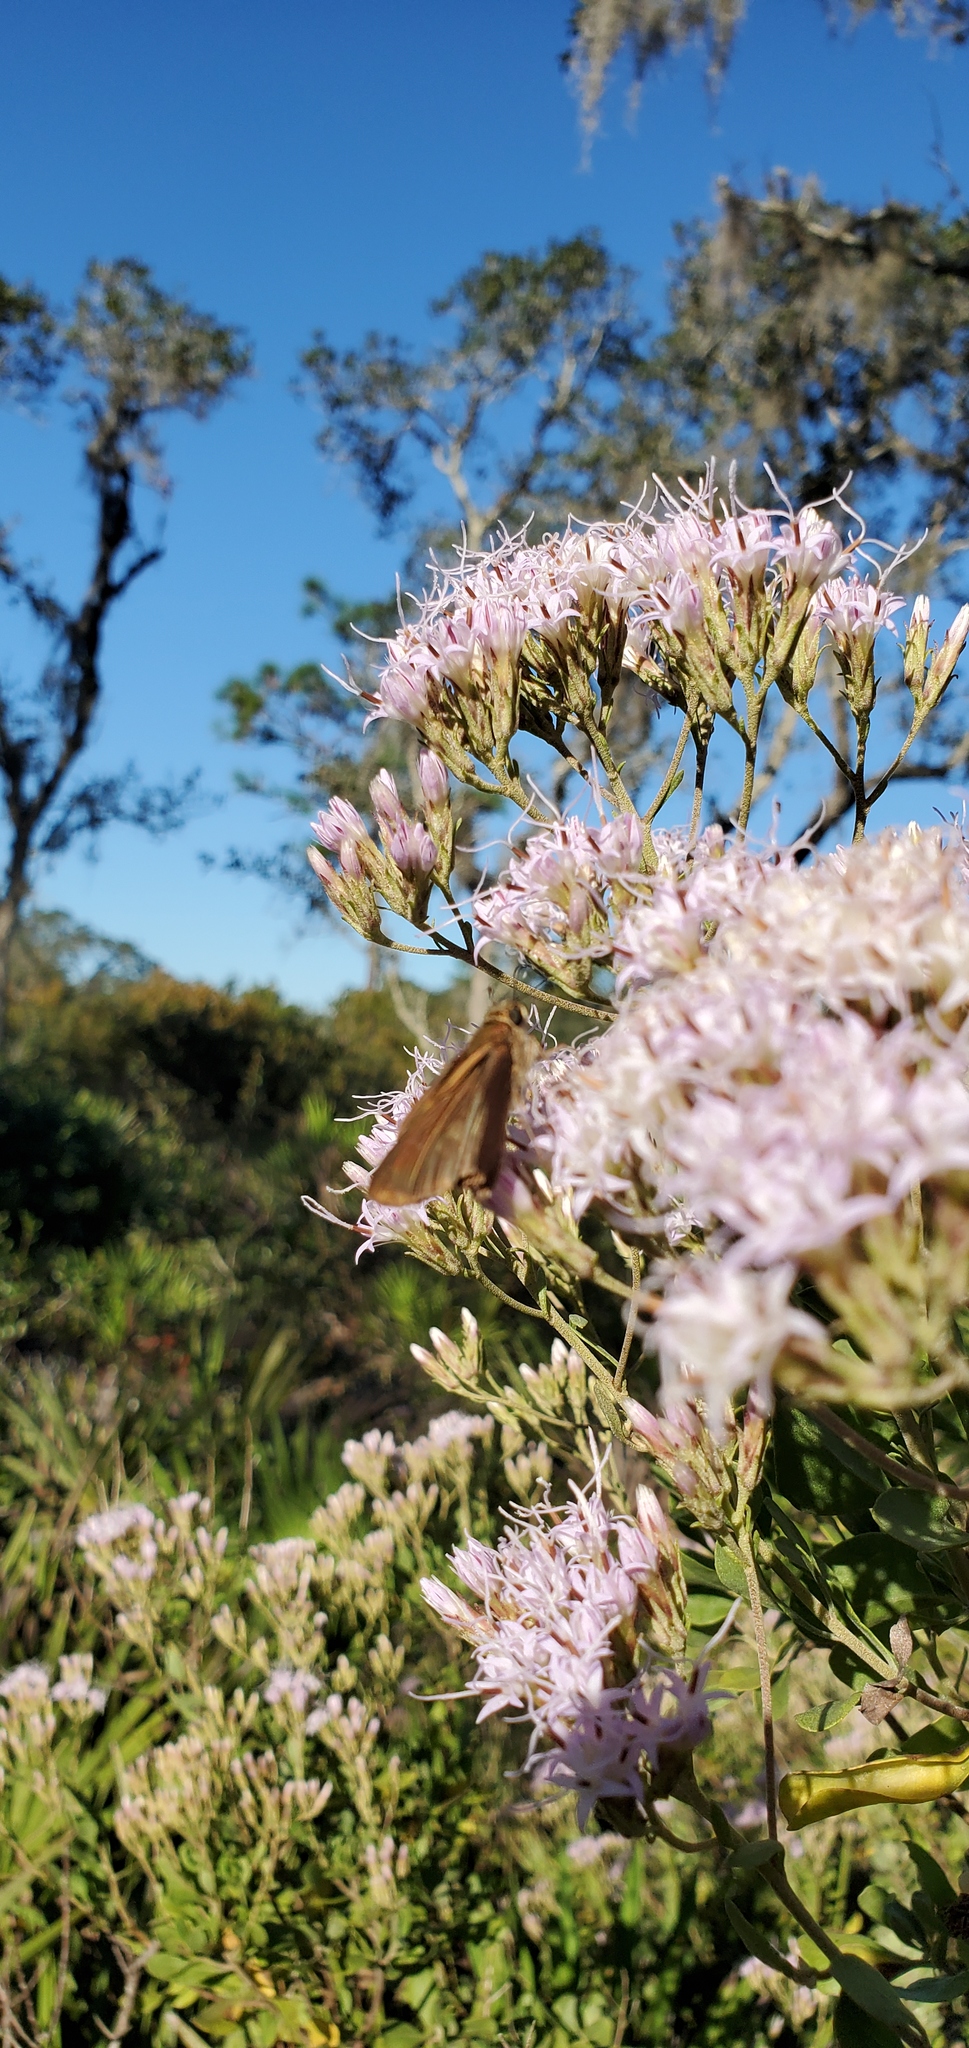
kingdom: Animalia
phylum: Arthropoda
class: Insecta
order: Lepidoptera
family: Hesperiidae
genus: Panoquina
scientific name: Panoquina ocola
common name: Ocola skipper
